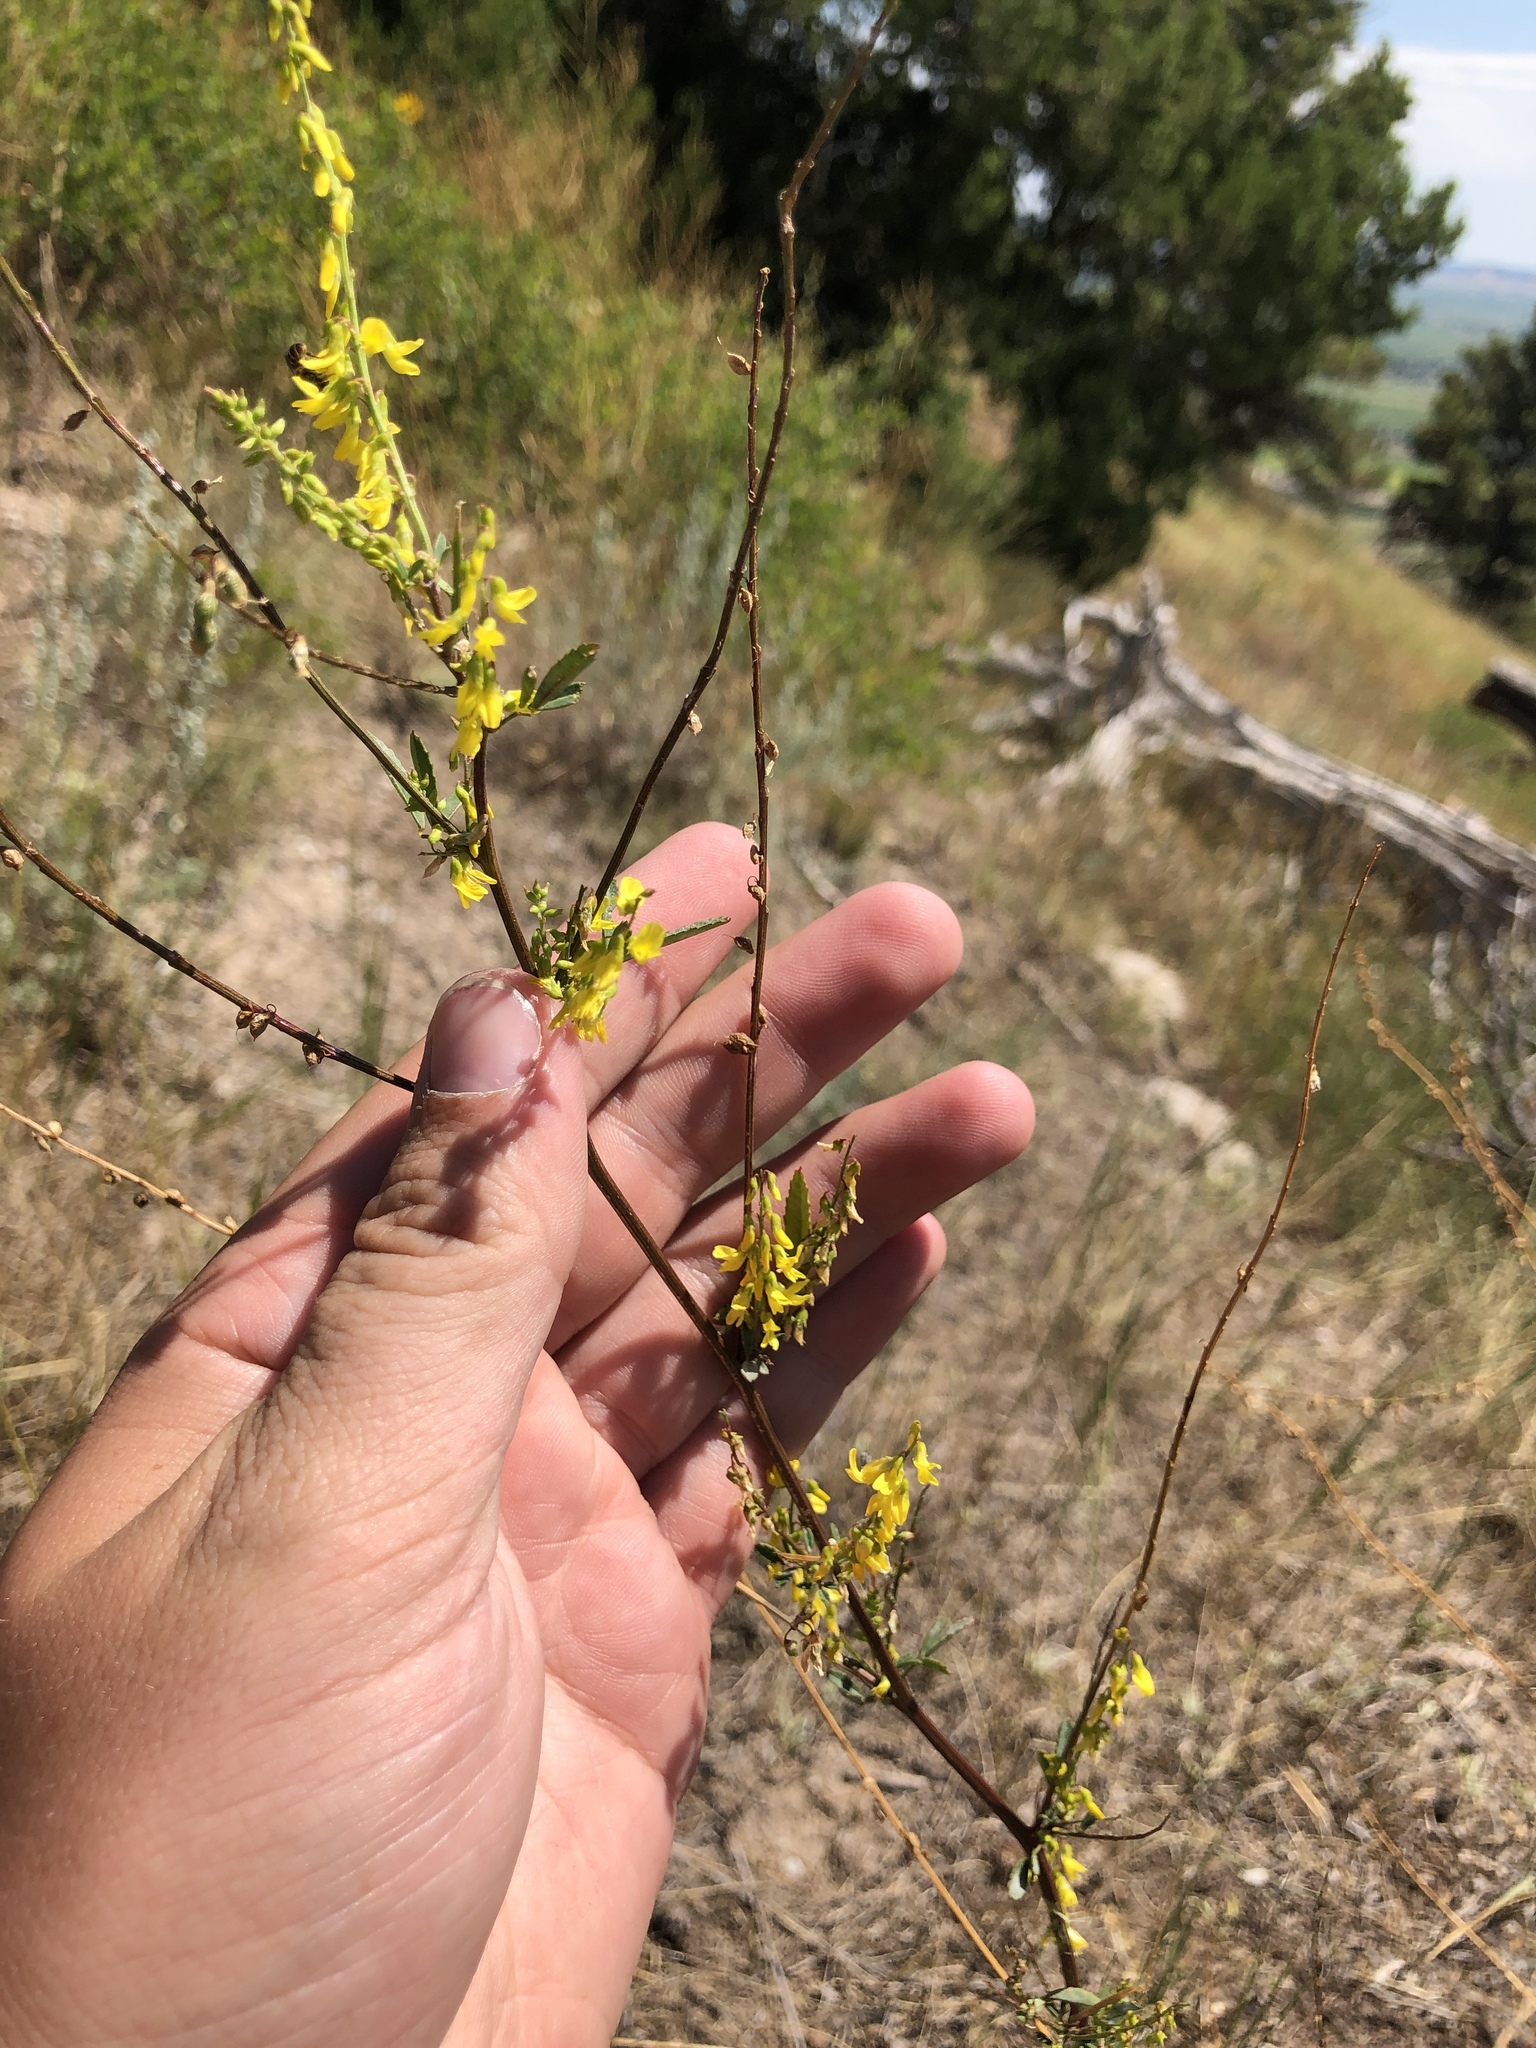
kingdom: Plantae
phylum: Tracheophyta
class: Magnoliopsida
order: Fabales
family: Fabaceae
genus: Melilotus
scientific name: Melilotus officinalis
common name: Sweetclover
